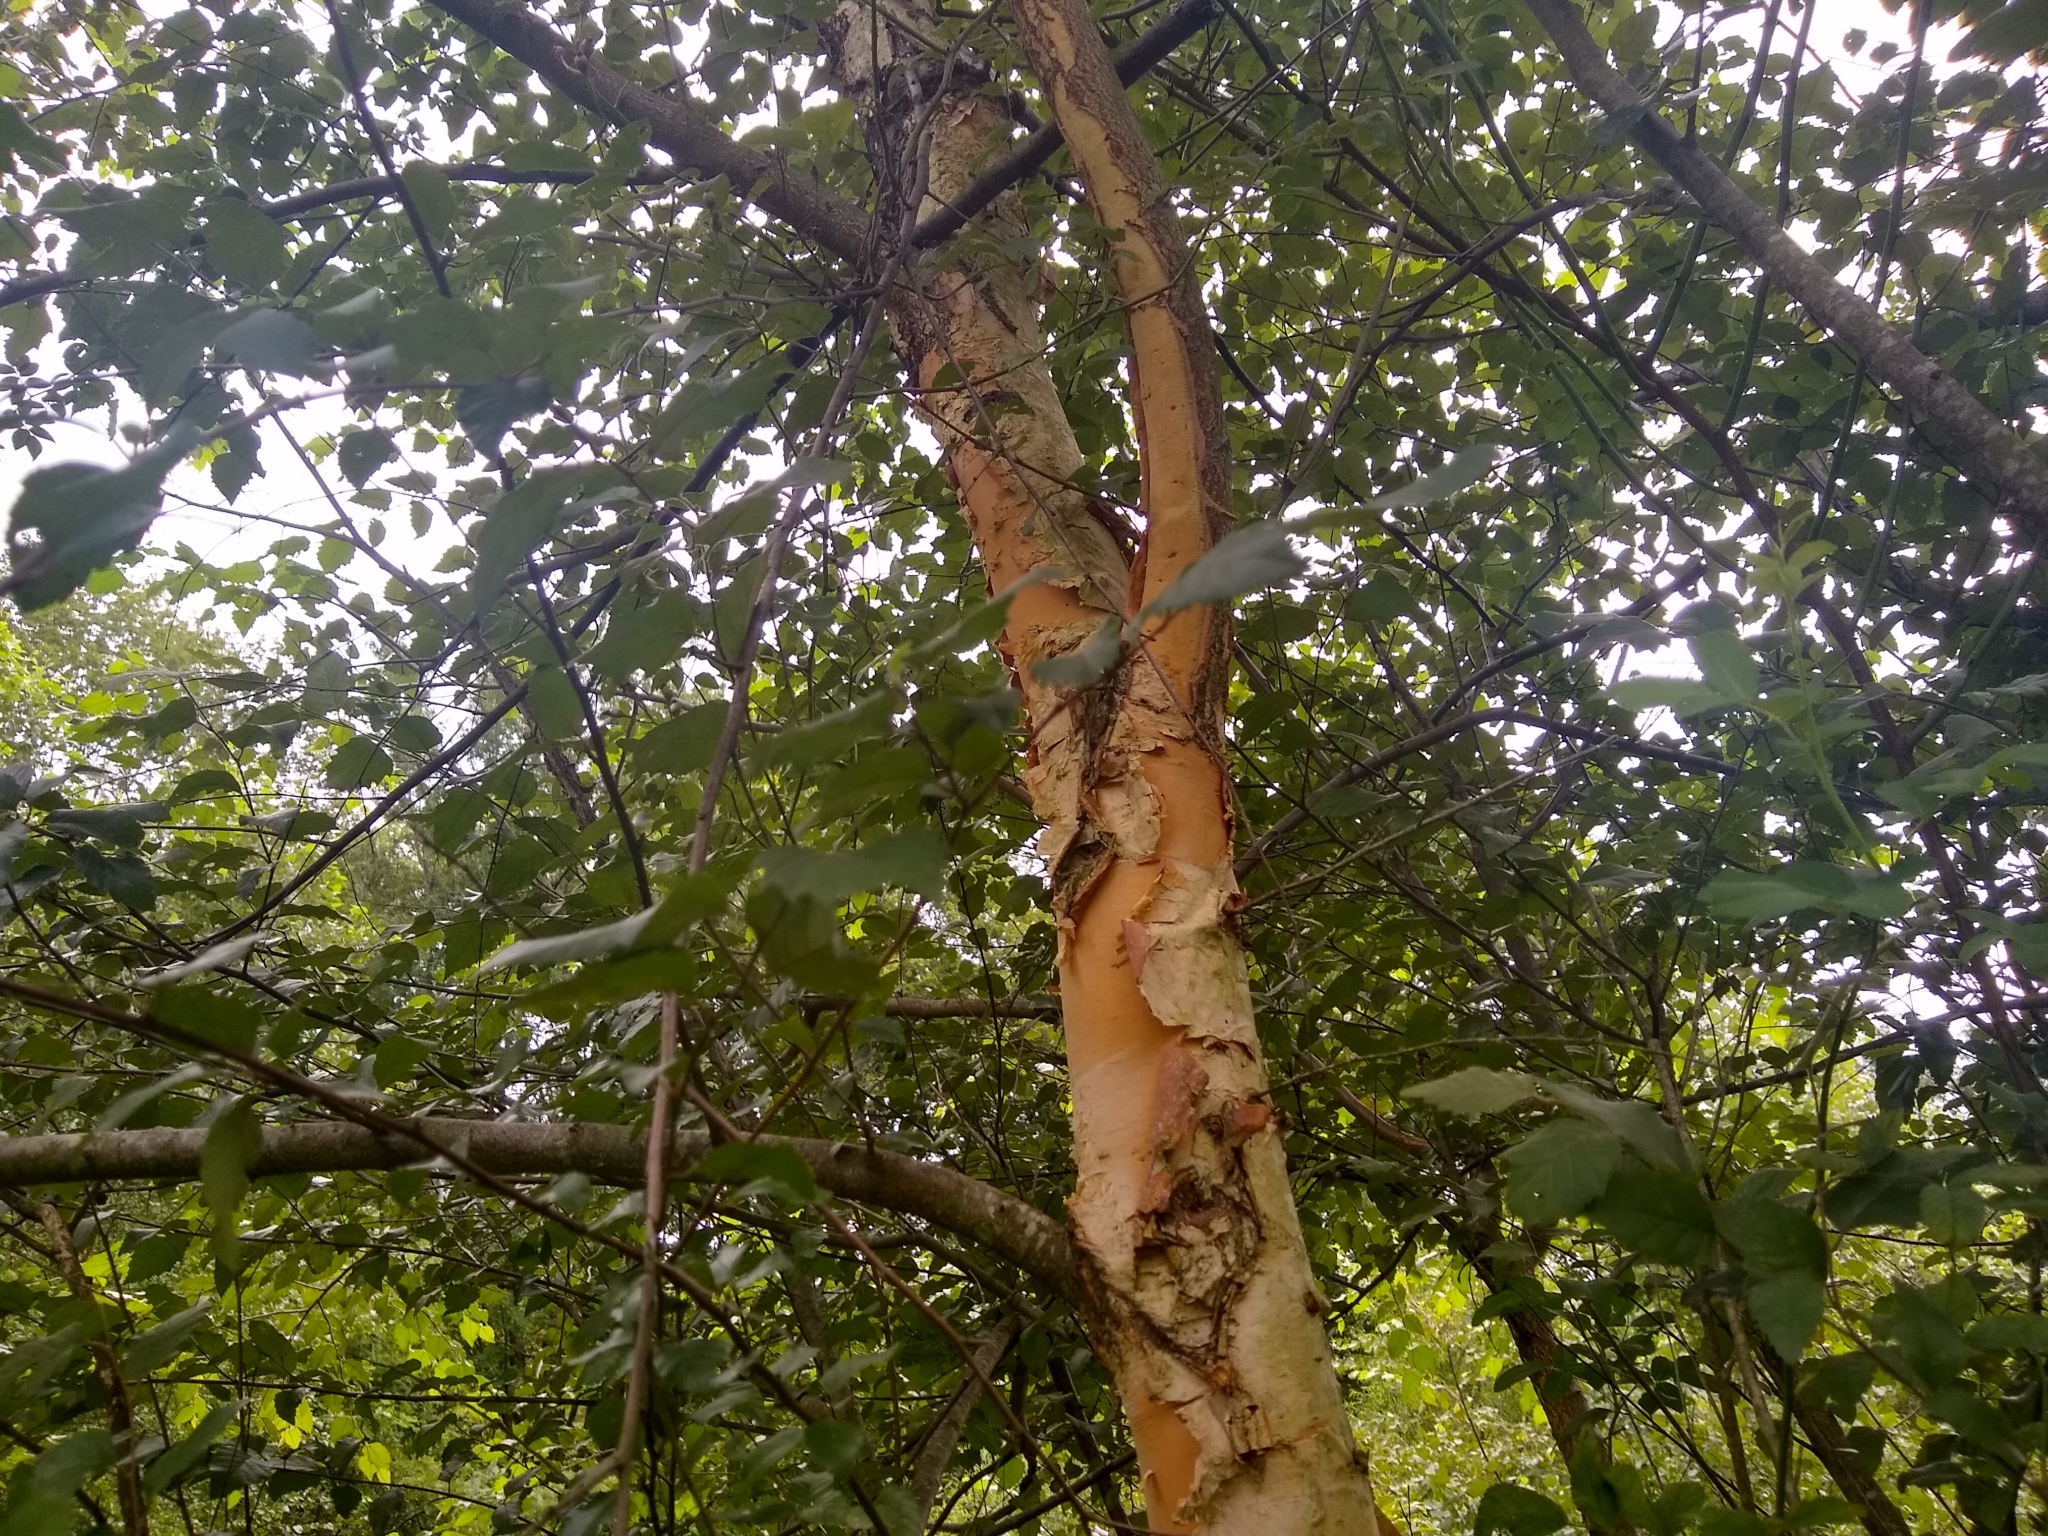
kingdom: Plantae
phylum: Tracheophyta
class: Magnoliopsida
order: Fagales
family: Betulaceae
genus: Betula
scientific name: Betula nigra
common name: Black birch
